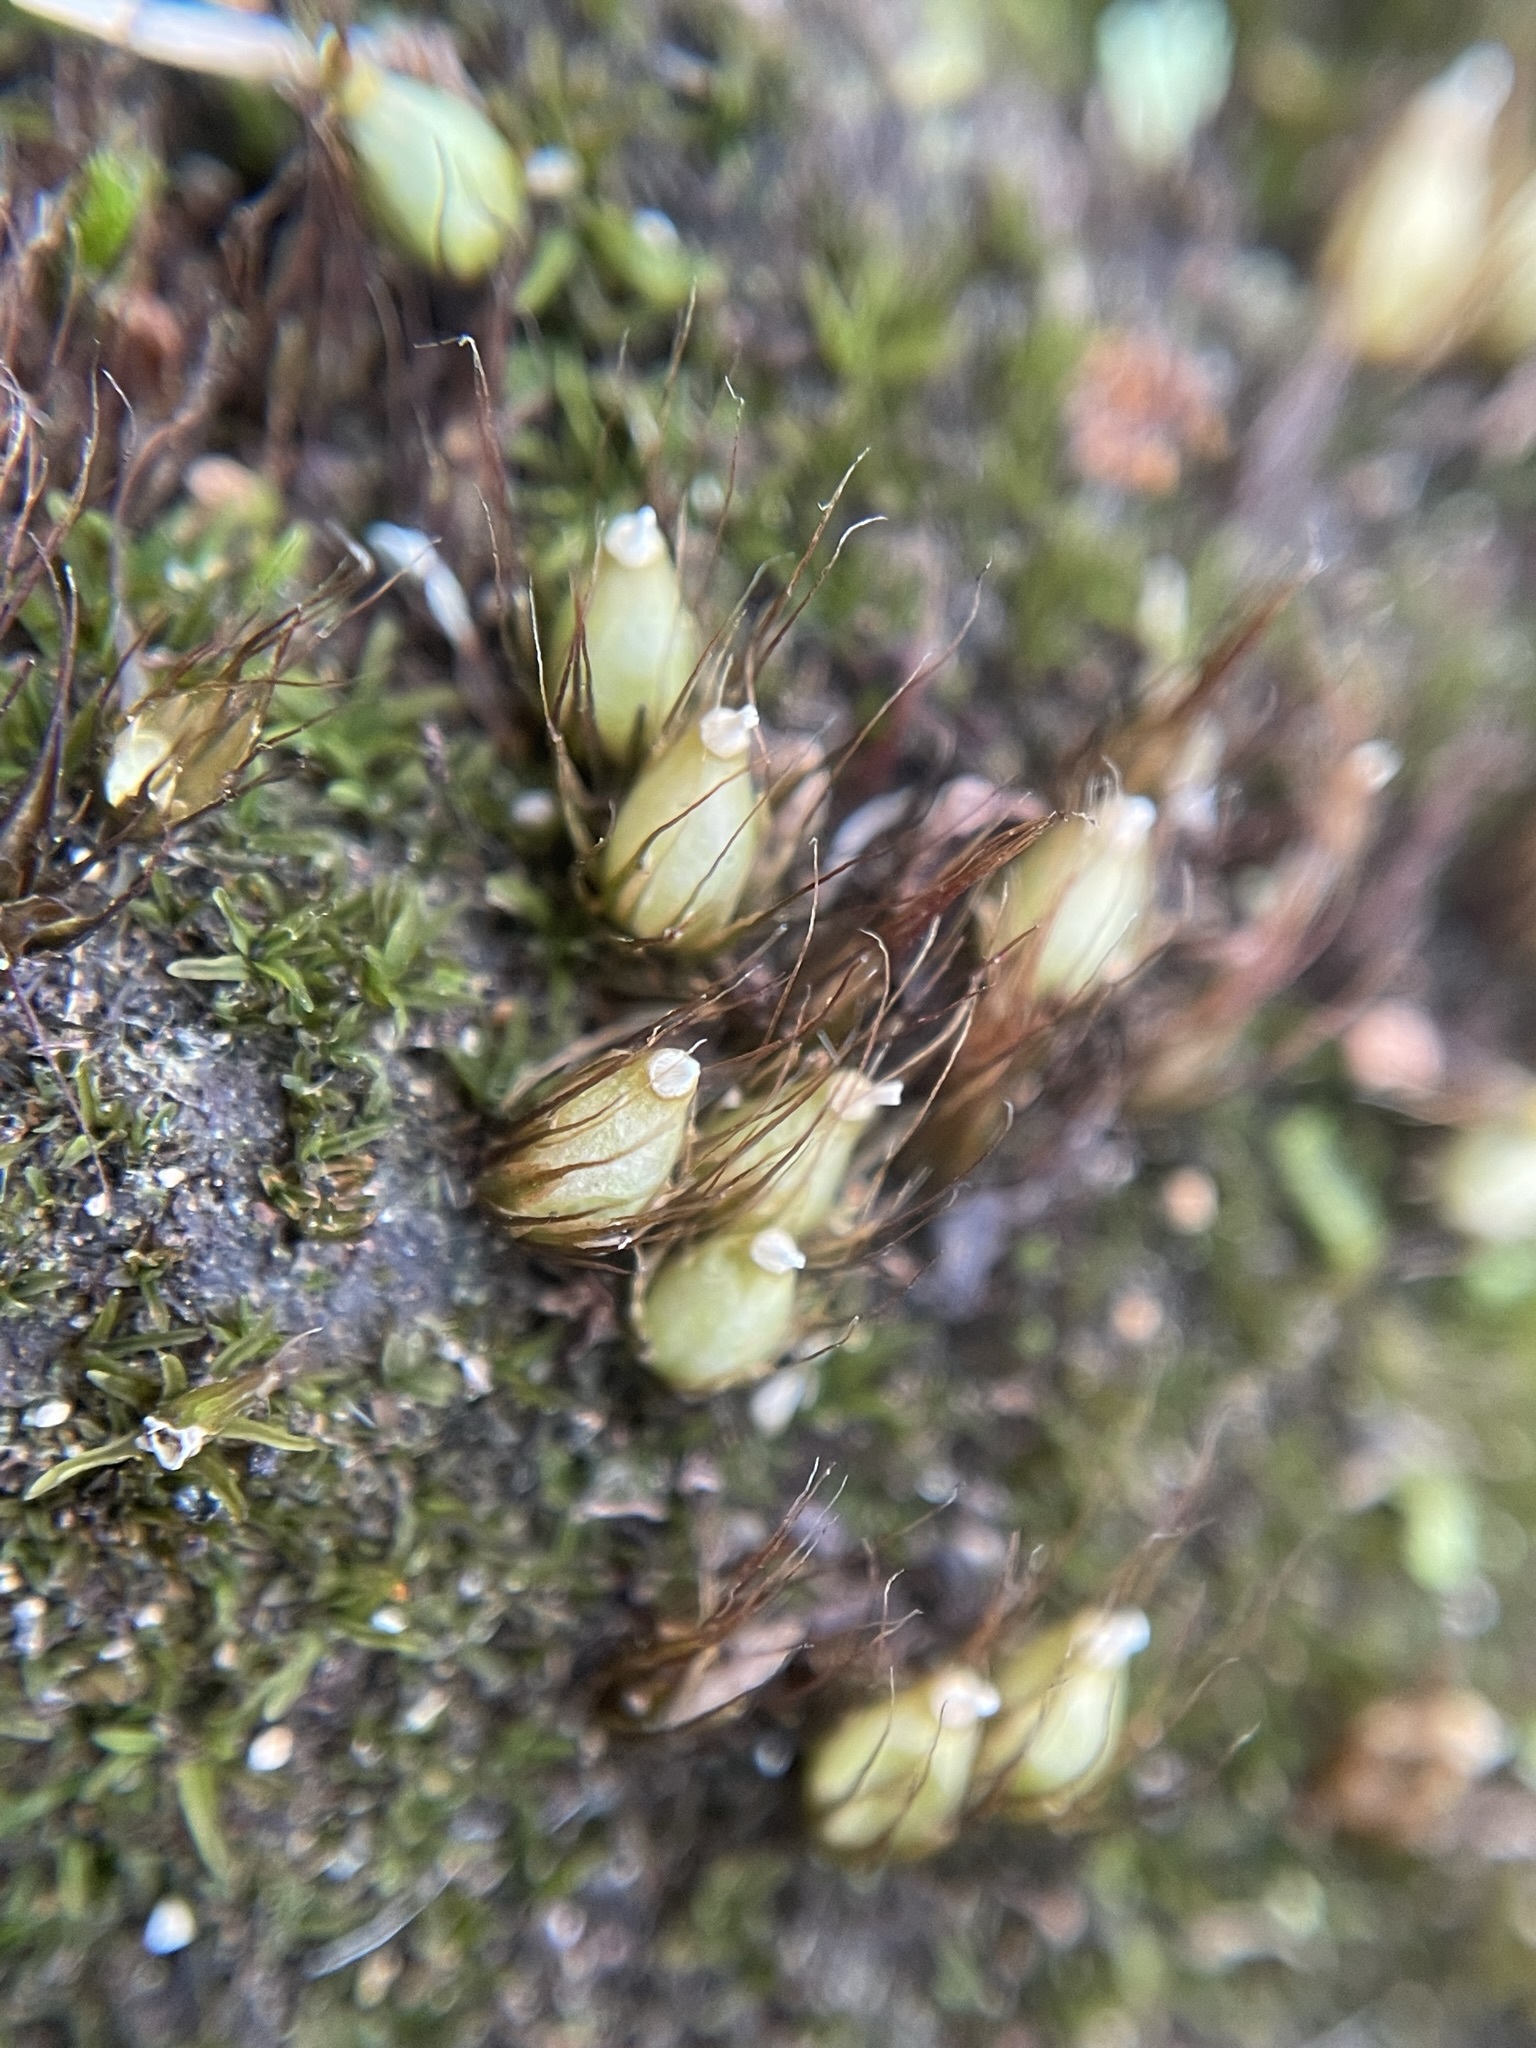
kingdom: Plantae
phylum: Bryophyta
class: Bryopsida
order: Diphysciales
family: Diphysciaceae
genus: Diphyscium
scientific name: Diphyscium foliosum
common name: Nut moss
